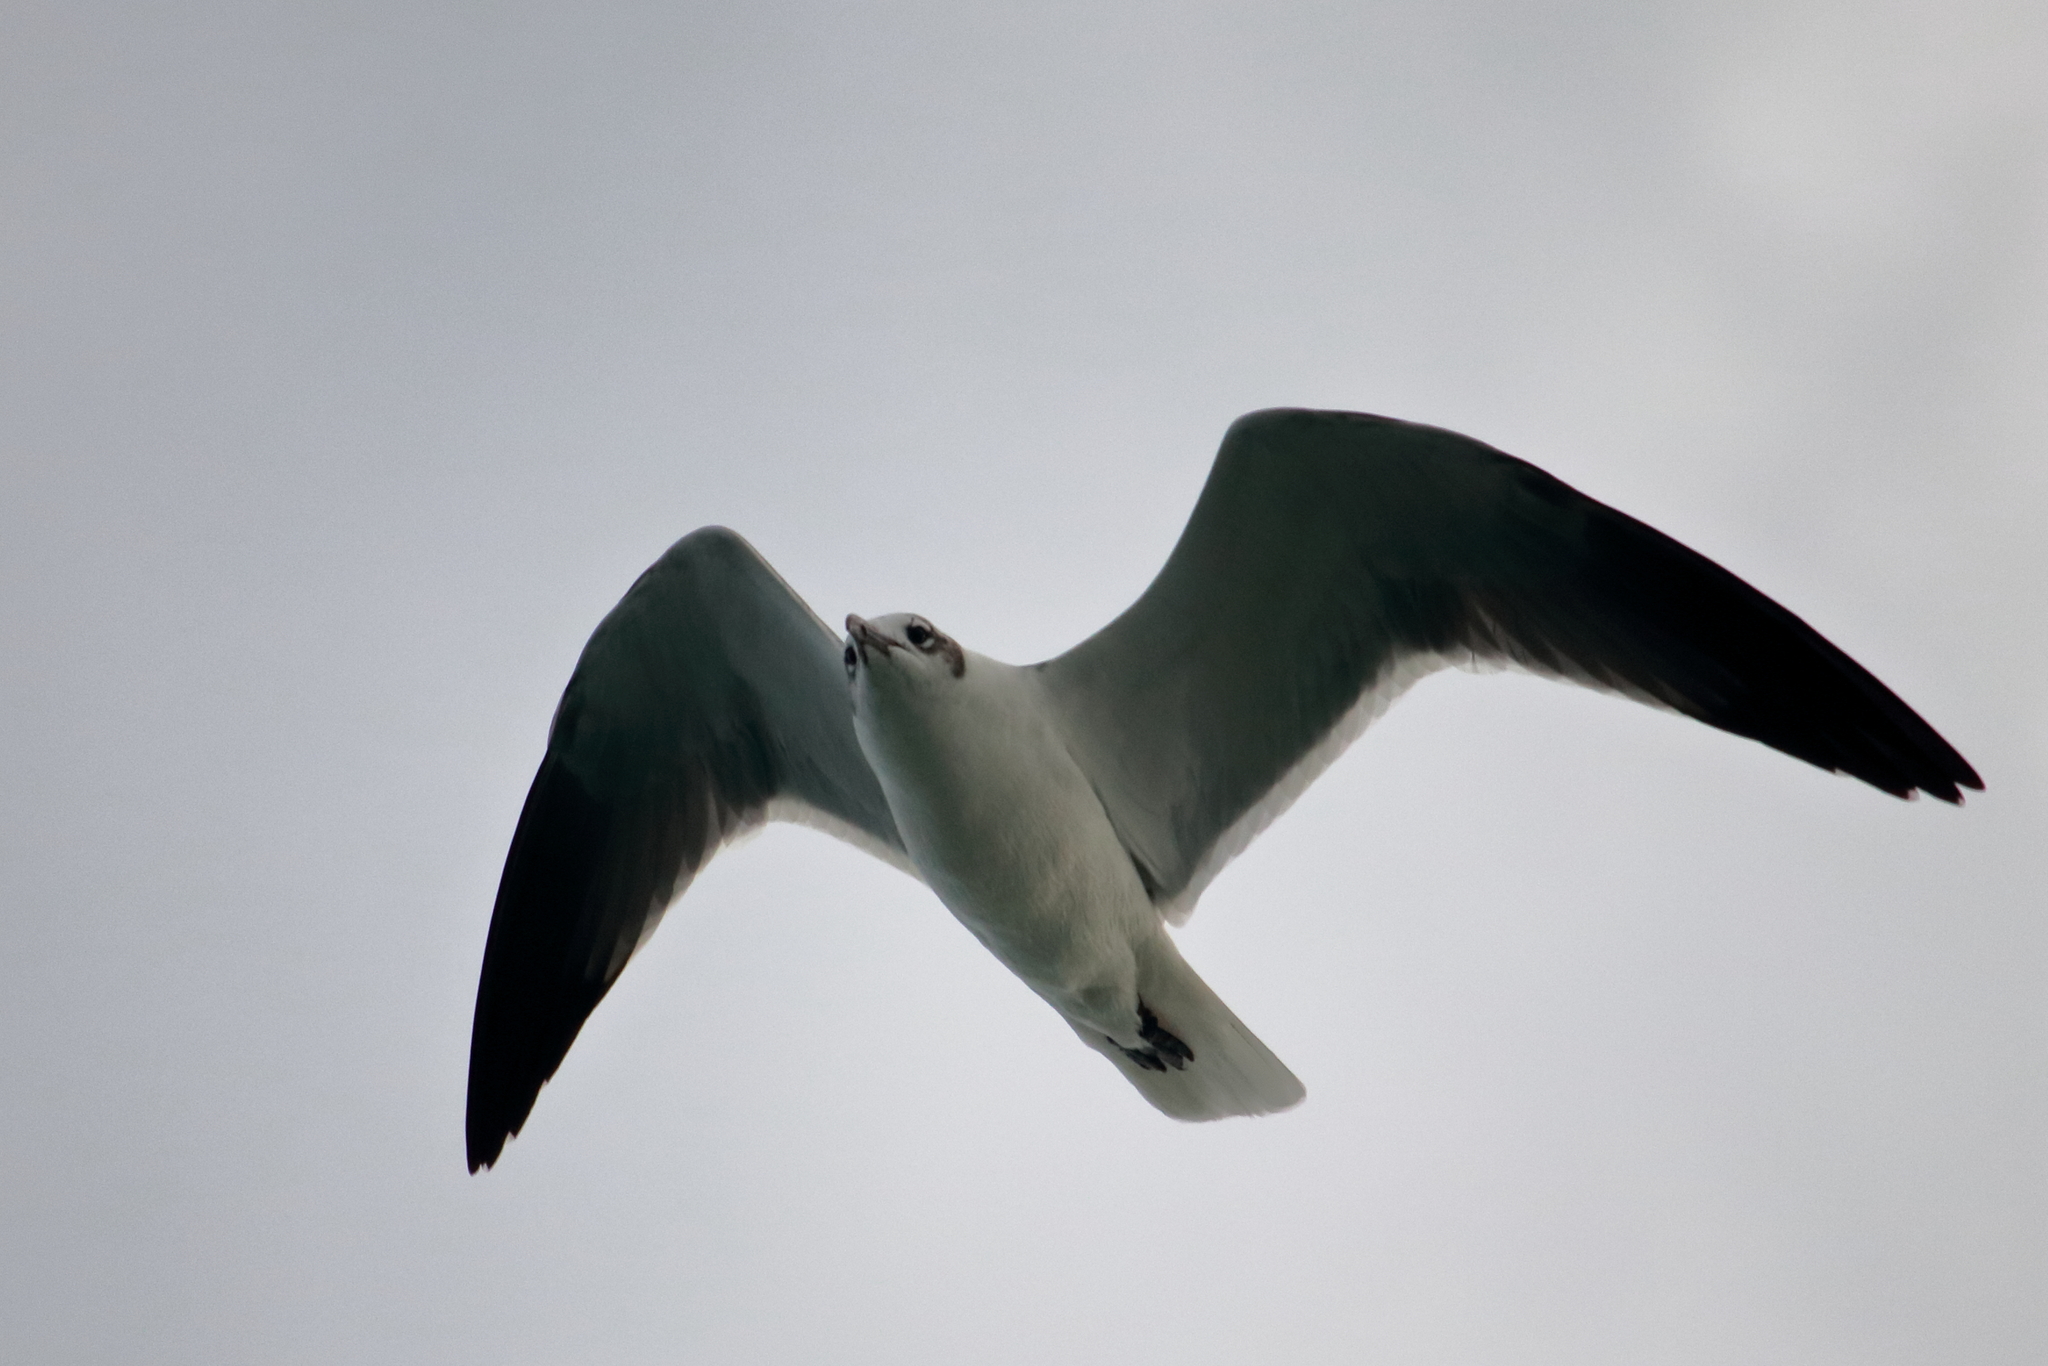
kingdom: Animalia
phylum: Chordata
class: Aves
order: Charadriiformes
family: Laridae
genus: Leucophaeus
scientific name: Leucophaeus atricilla
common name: Laughing gull
